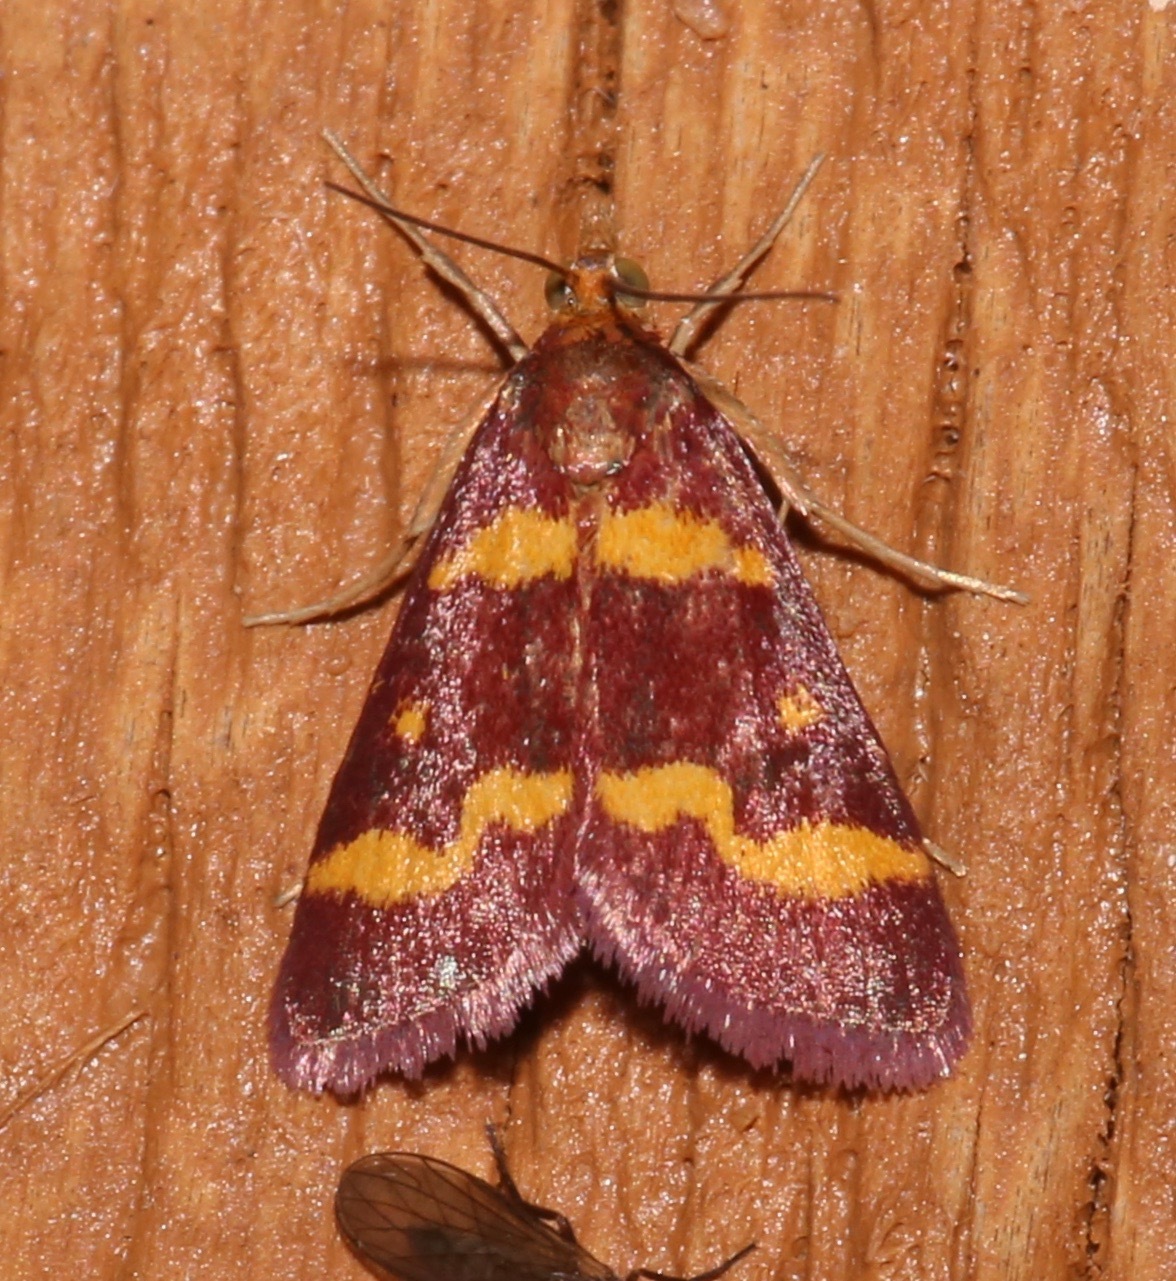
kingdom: Animalia
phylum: Arthropoda
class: Insecta
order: Lepidoptera
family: Crambidae
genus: Pyrausta
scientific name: Pyrausta tyralis
